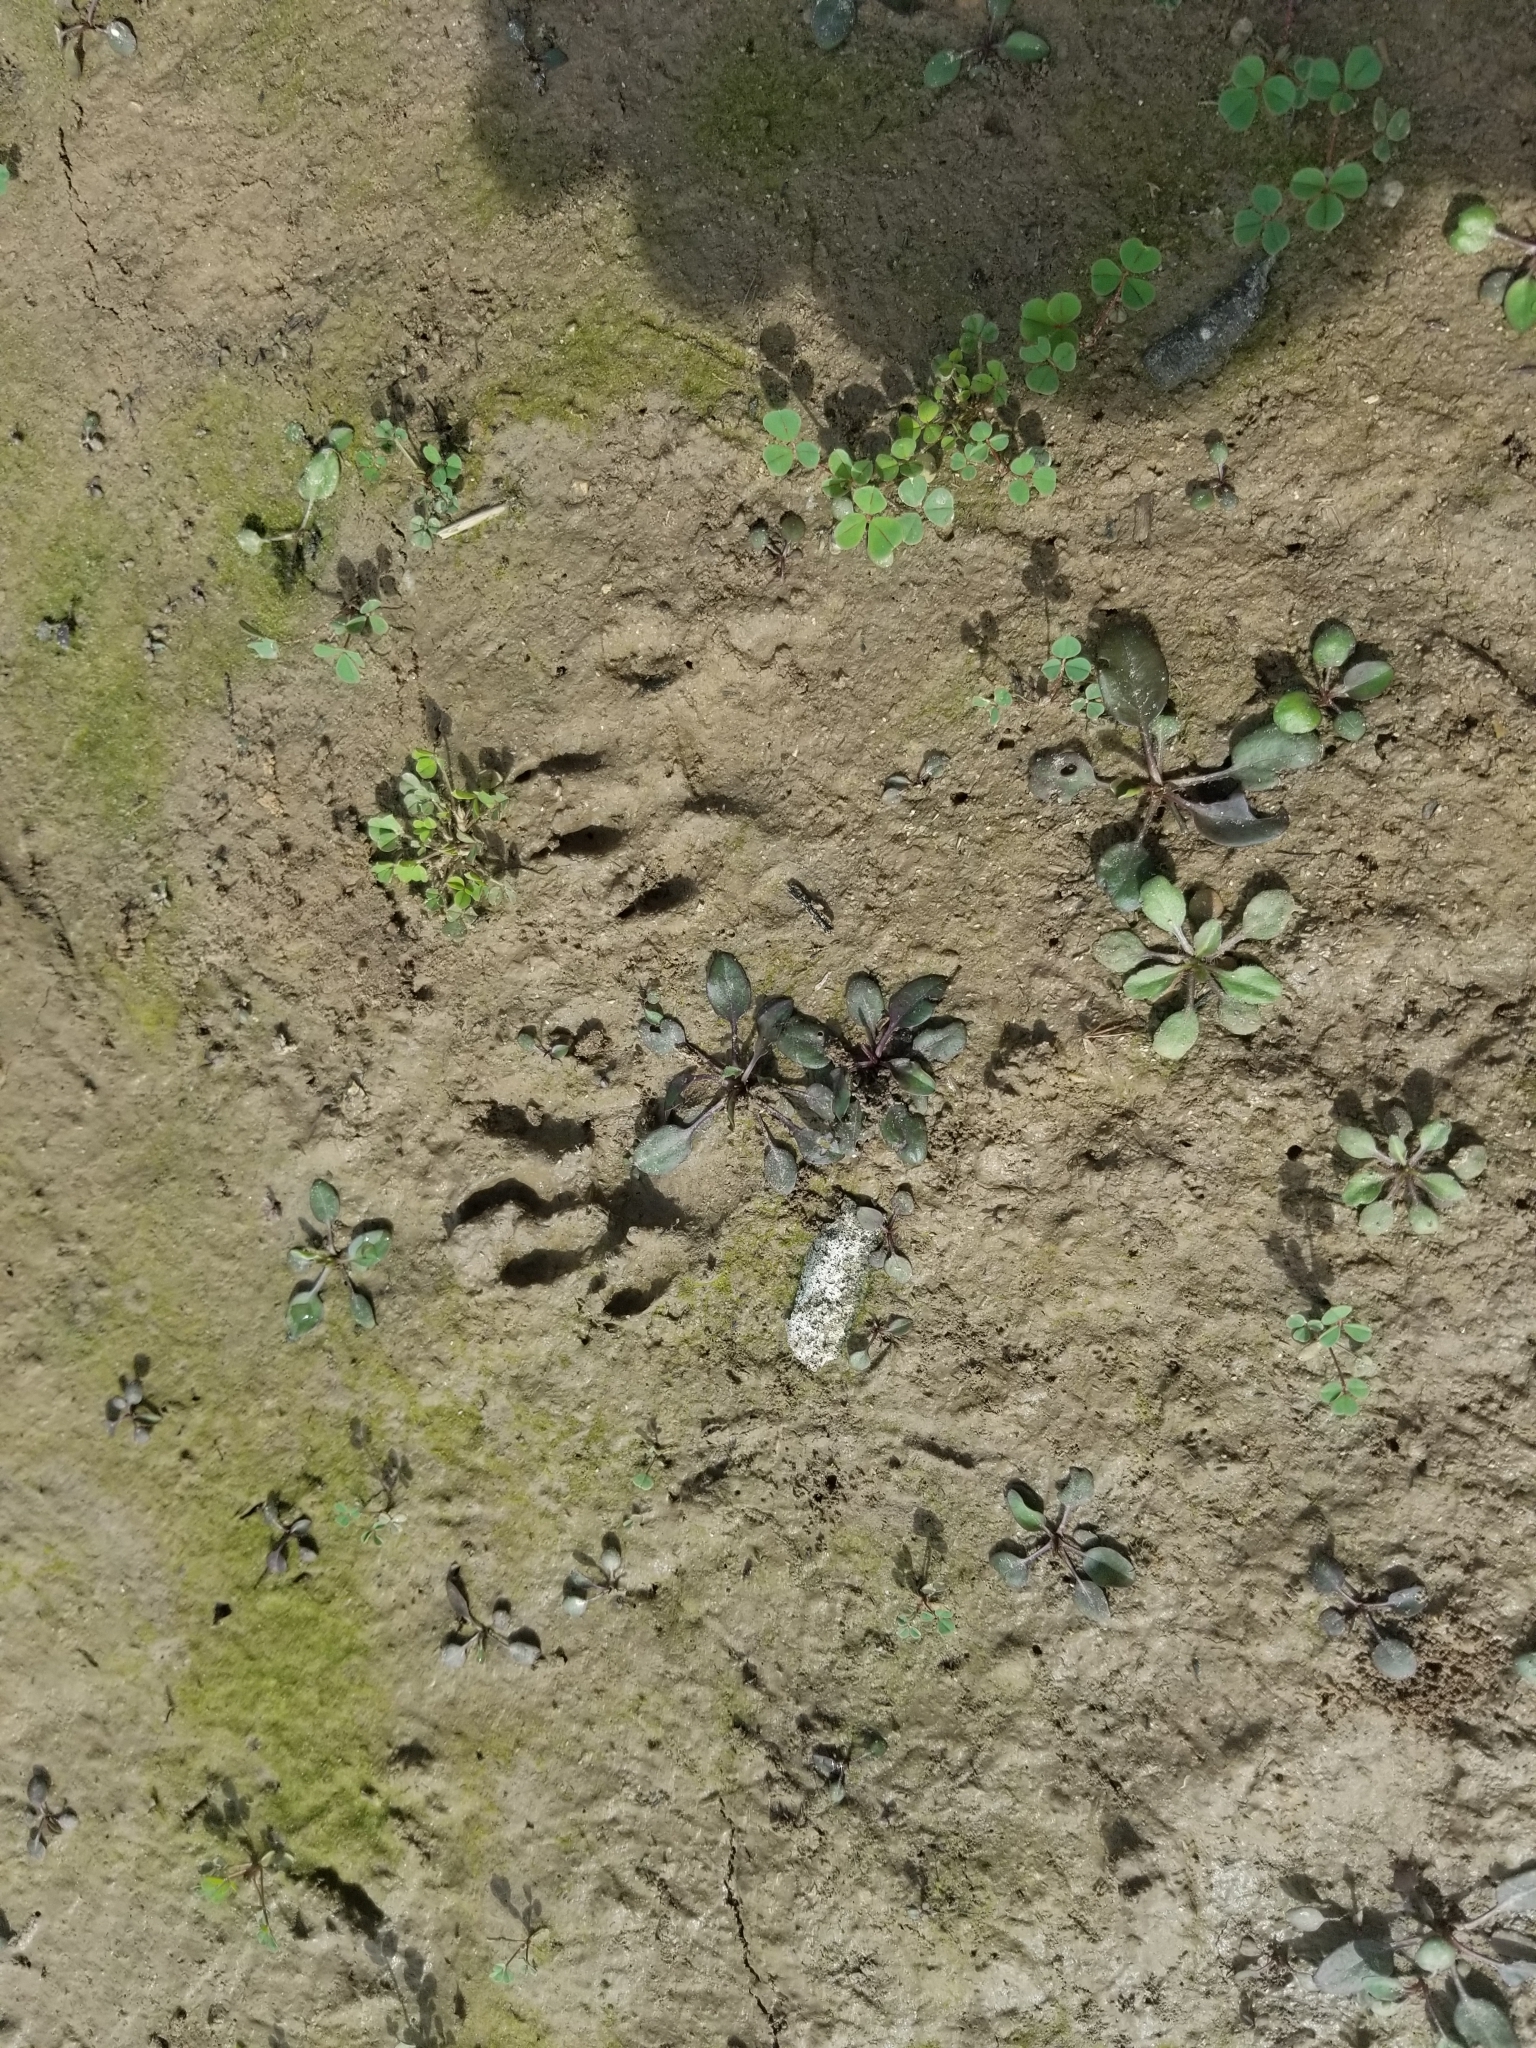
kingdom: Animalia
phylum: Chordata
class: Mammalia
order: Carnivora
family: Procyonidae
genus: Procyon
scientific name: Procyon lotor
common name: Raccoon
